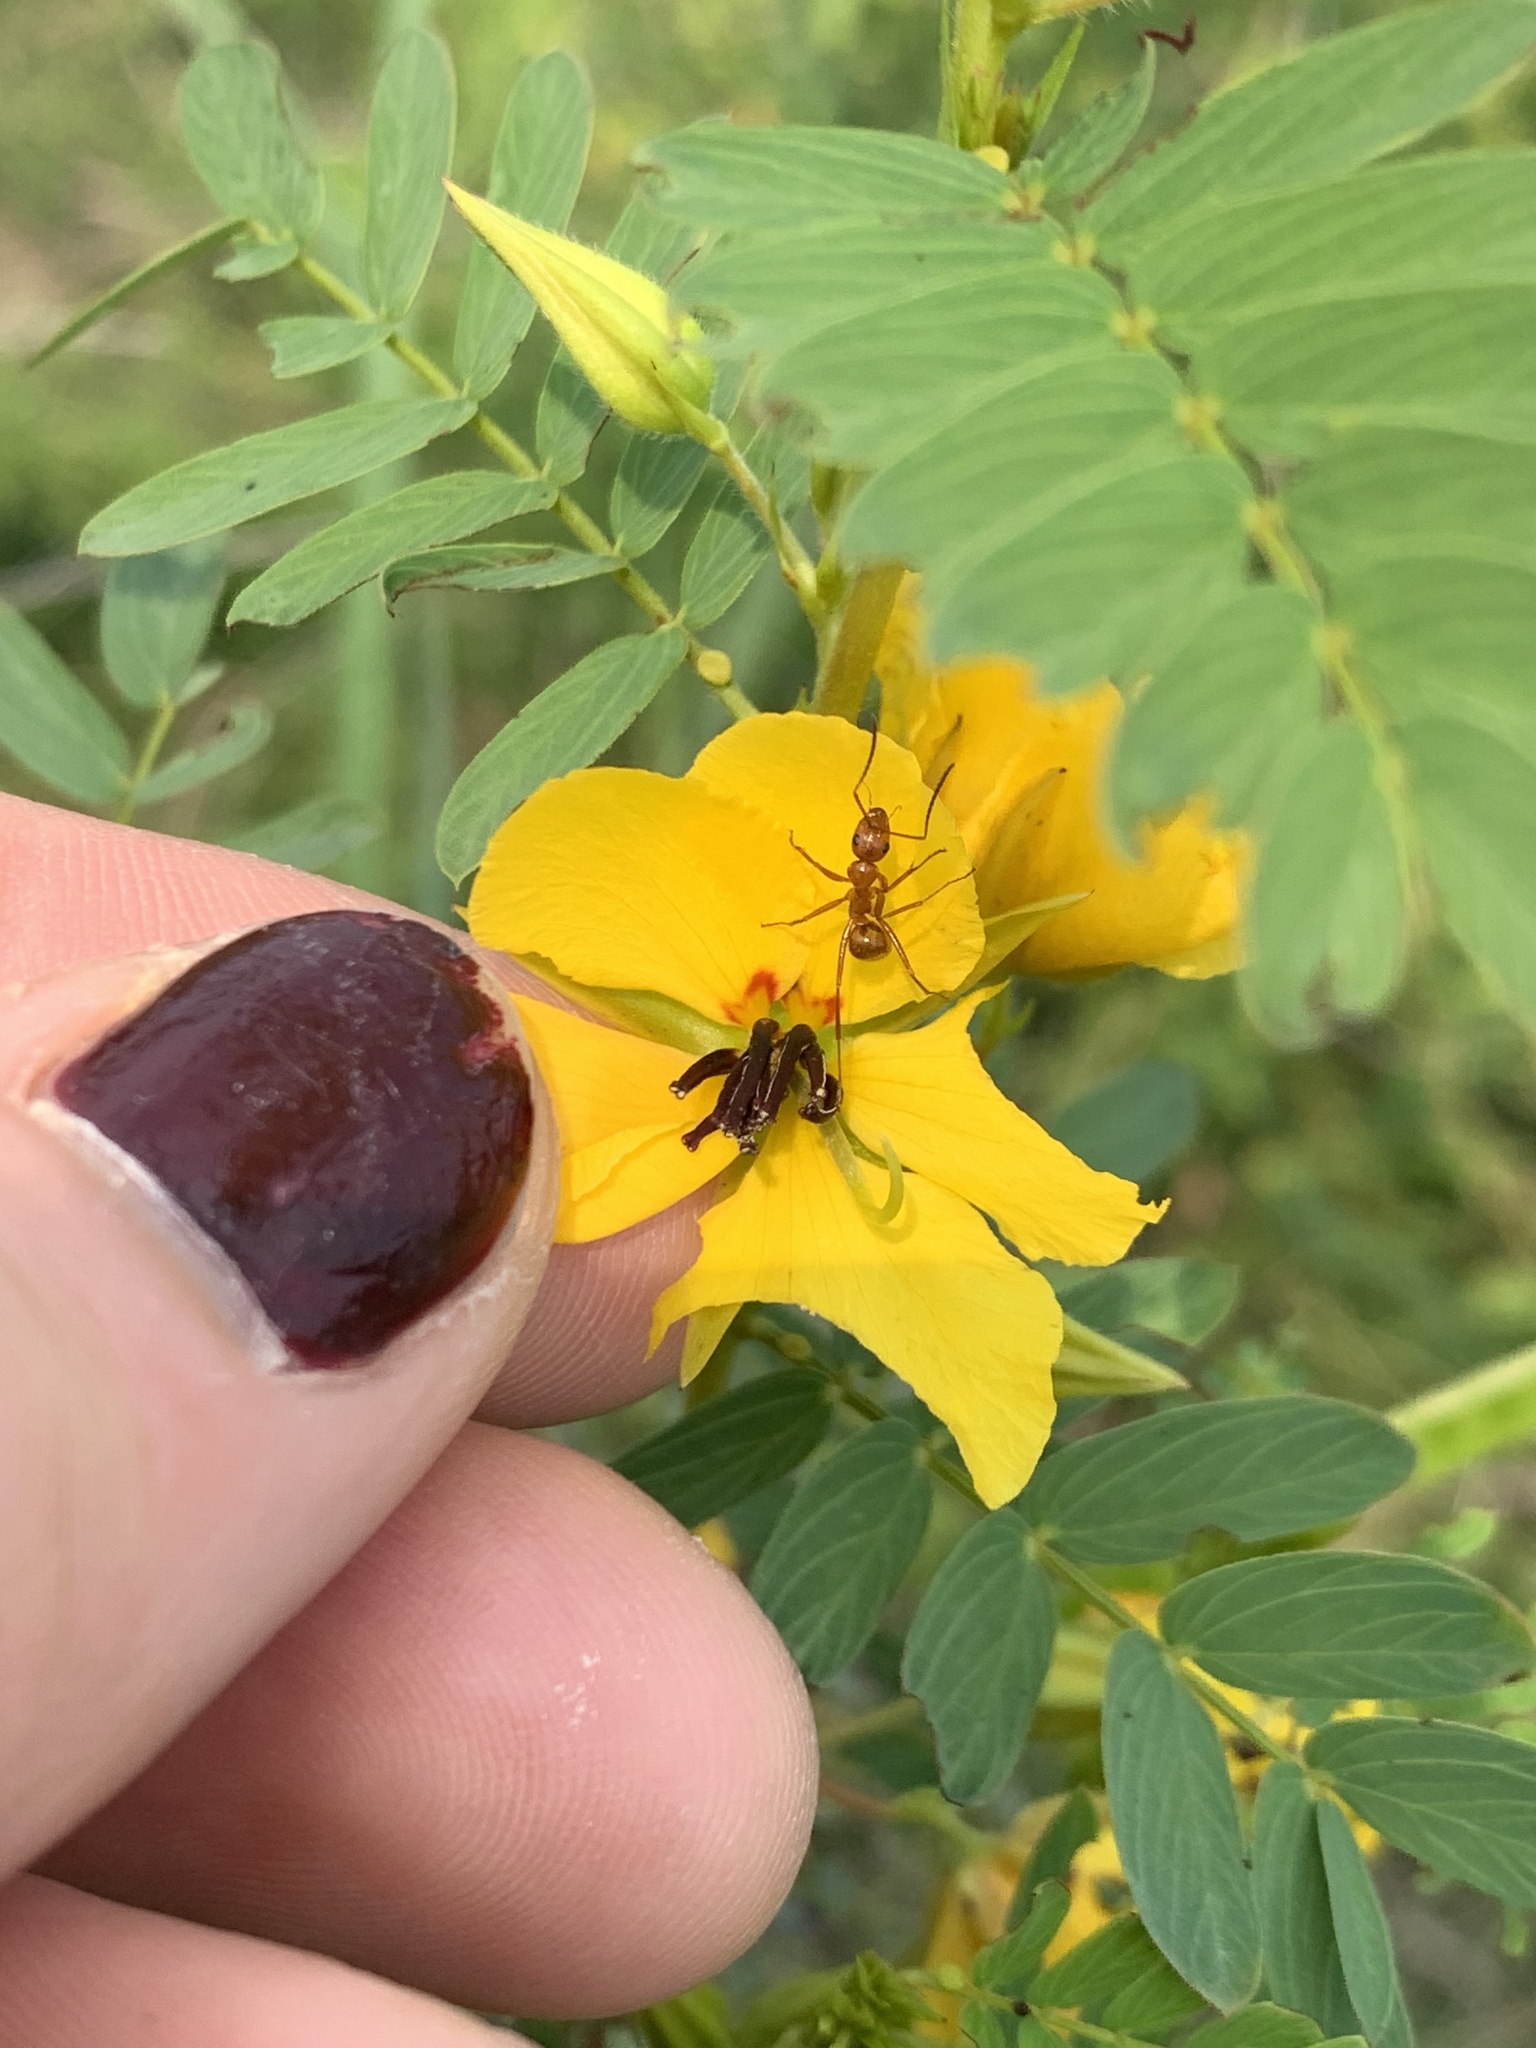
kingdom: Plantae
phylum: Tracheophyta
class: Magnoliopsida
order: Fabales
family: Fabaceae
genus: Chamaecrista
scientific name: Chamaecrista fasciculata
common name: Golden cassia
